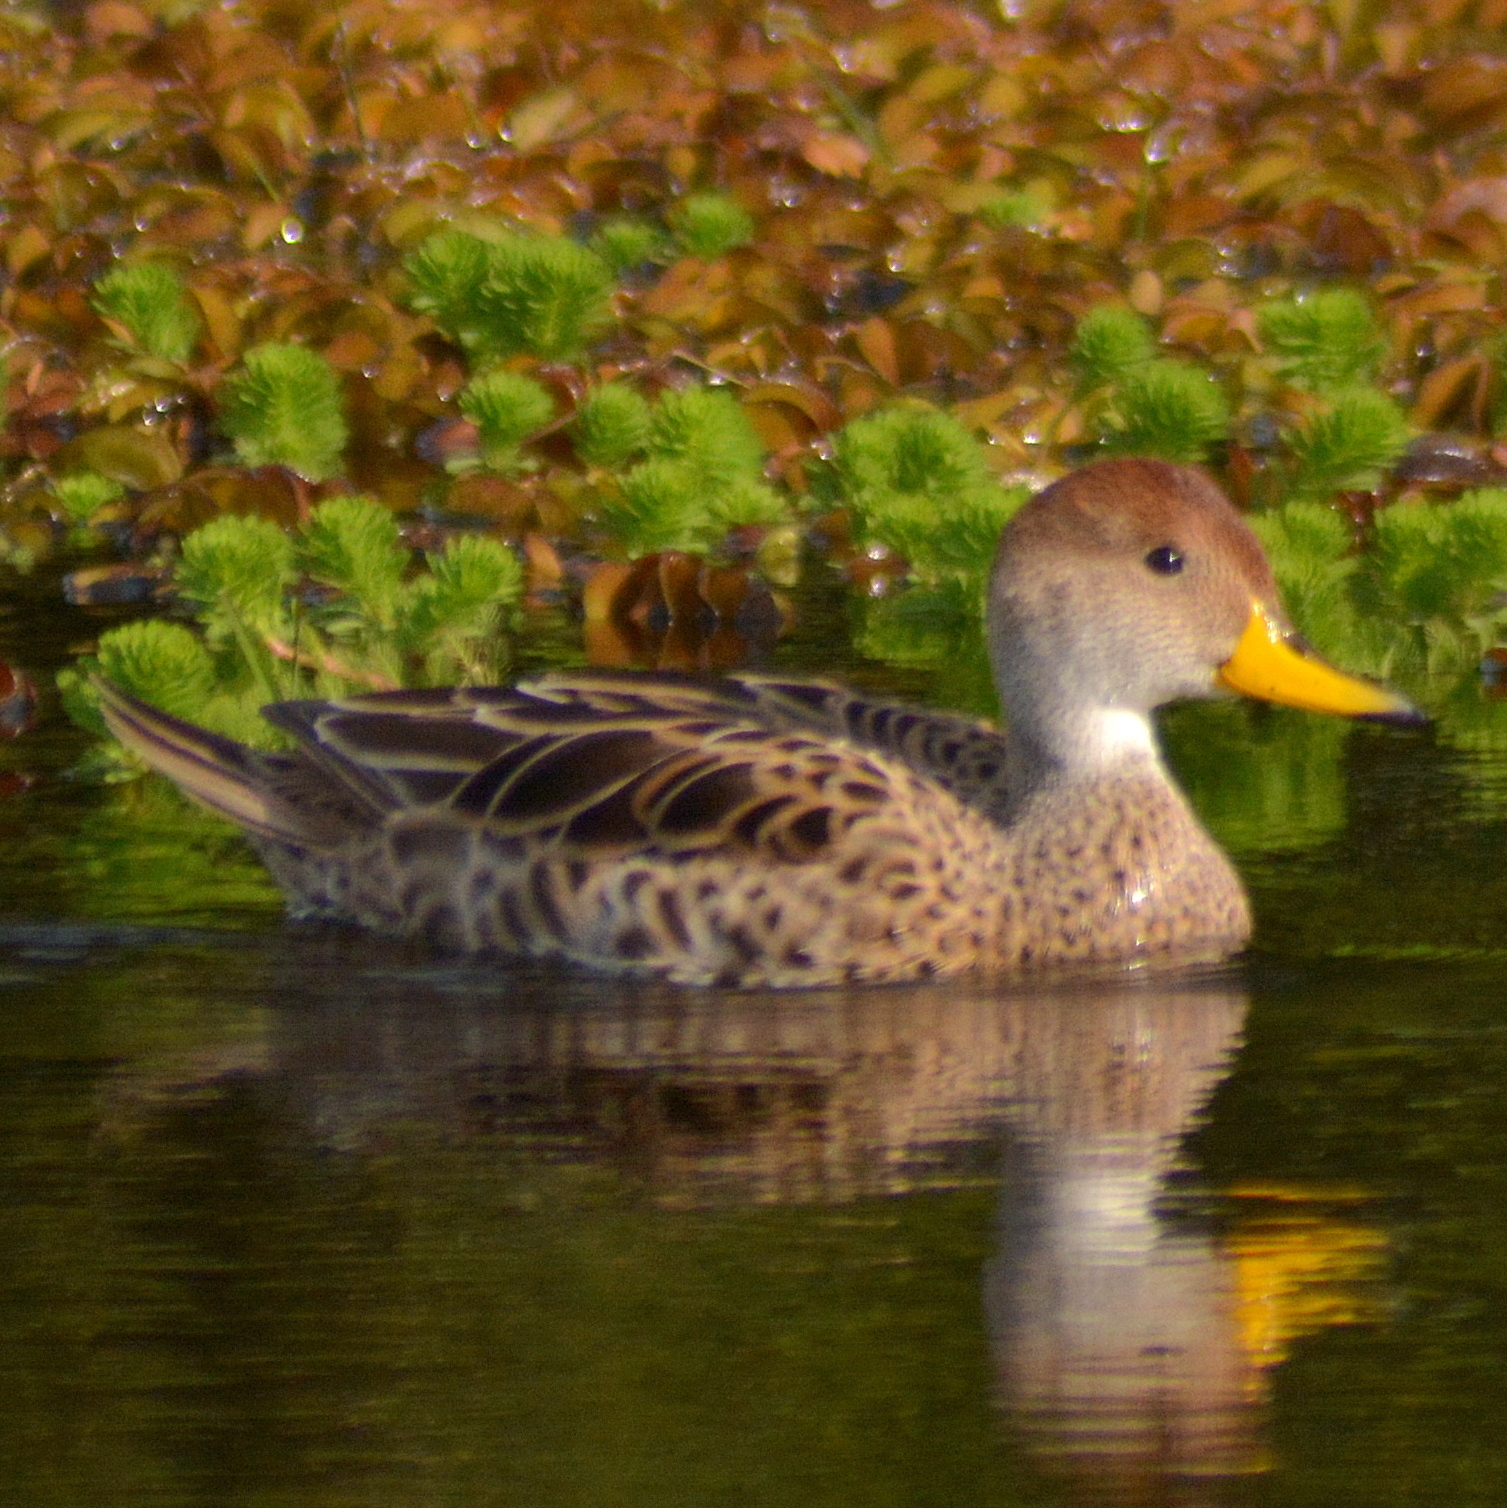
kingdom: Animalia
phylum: Chordata
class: Aves
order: Anseriformes
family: Anatidae
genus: Anas
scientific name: Anas georgica
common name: Yellow-billed pintail
